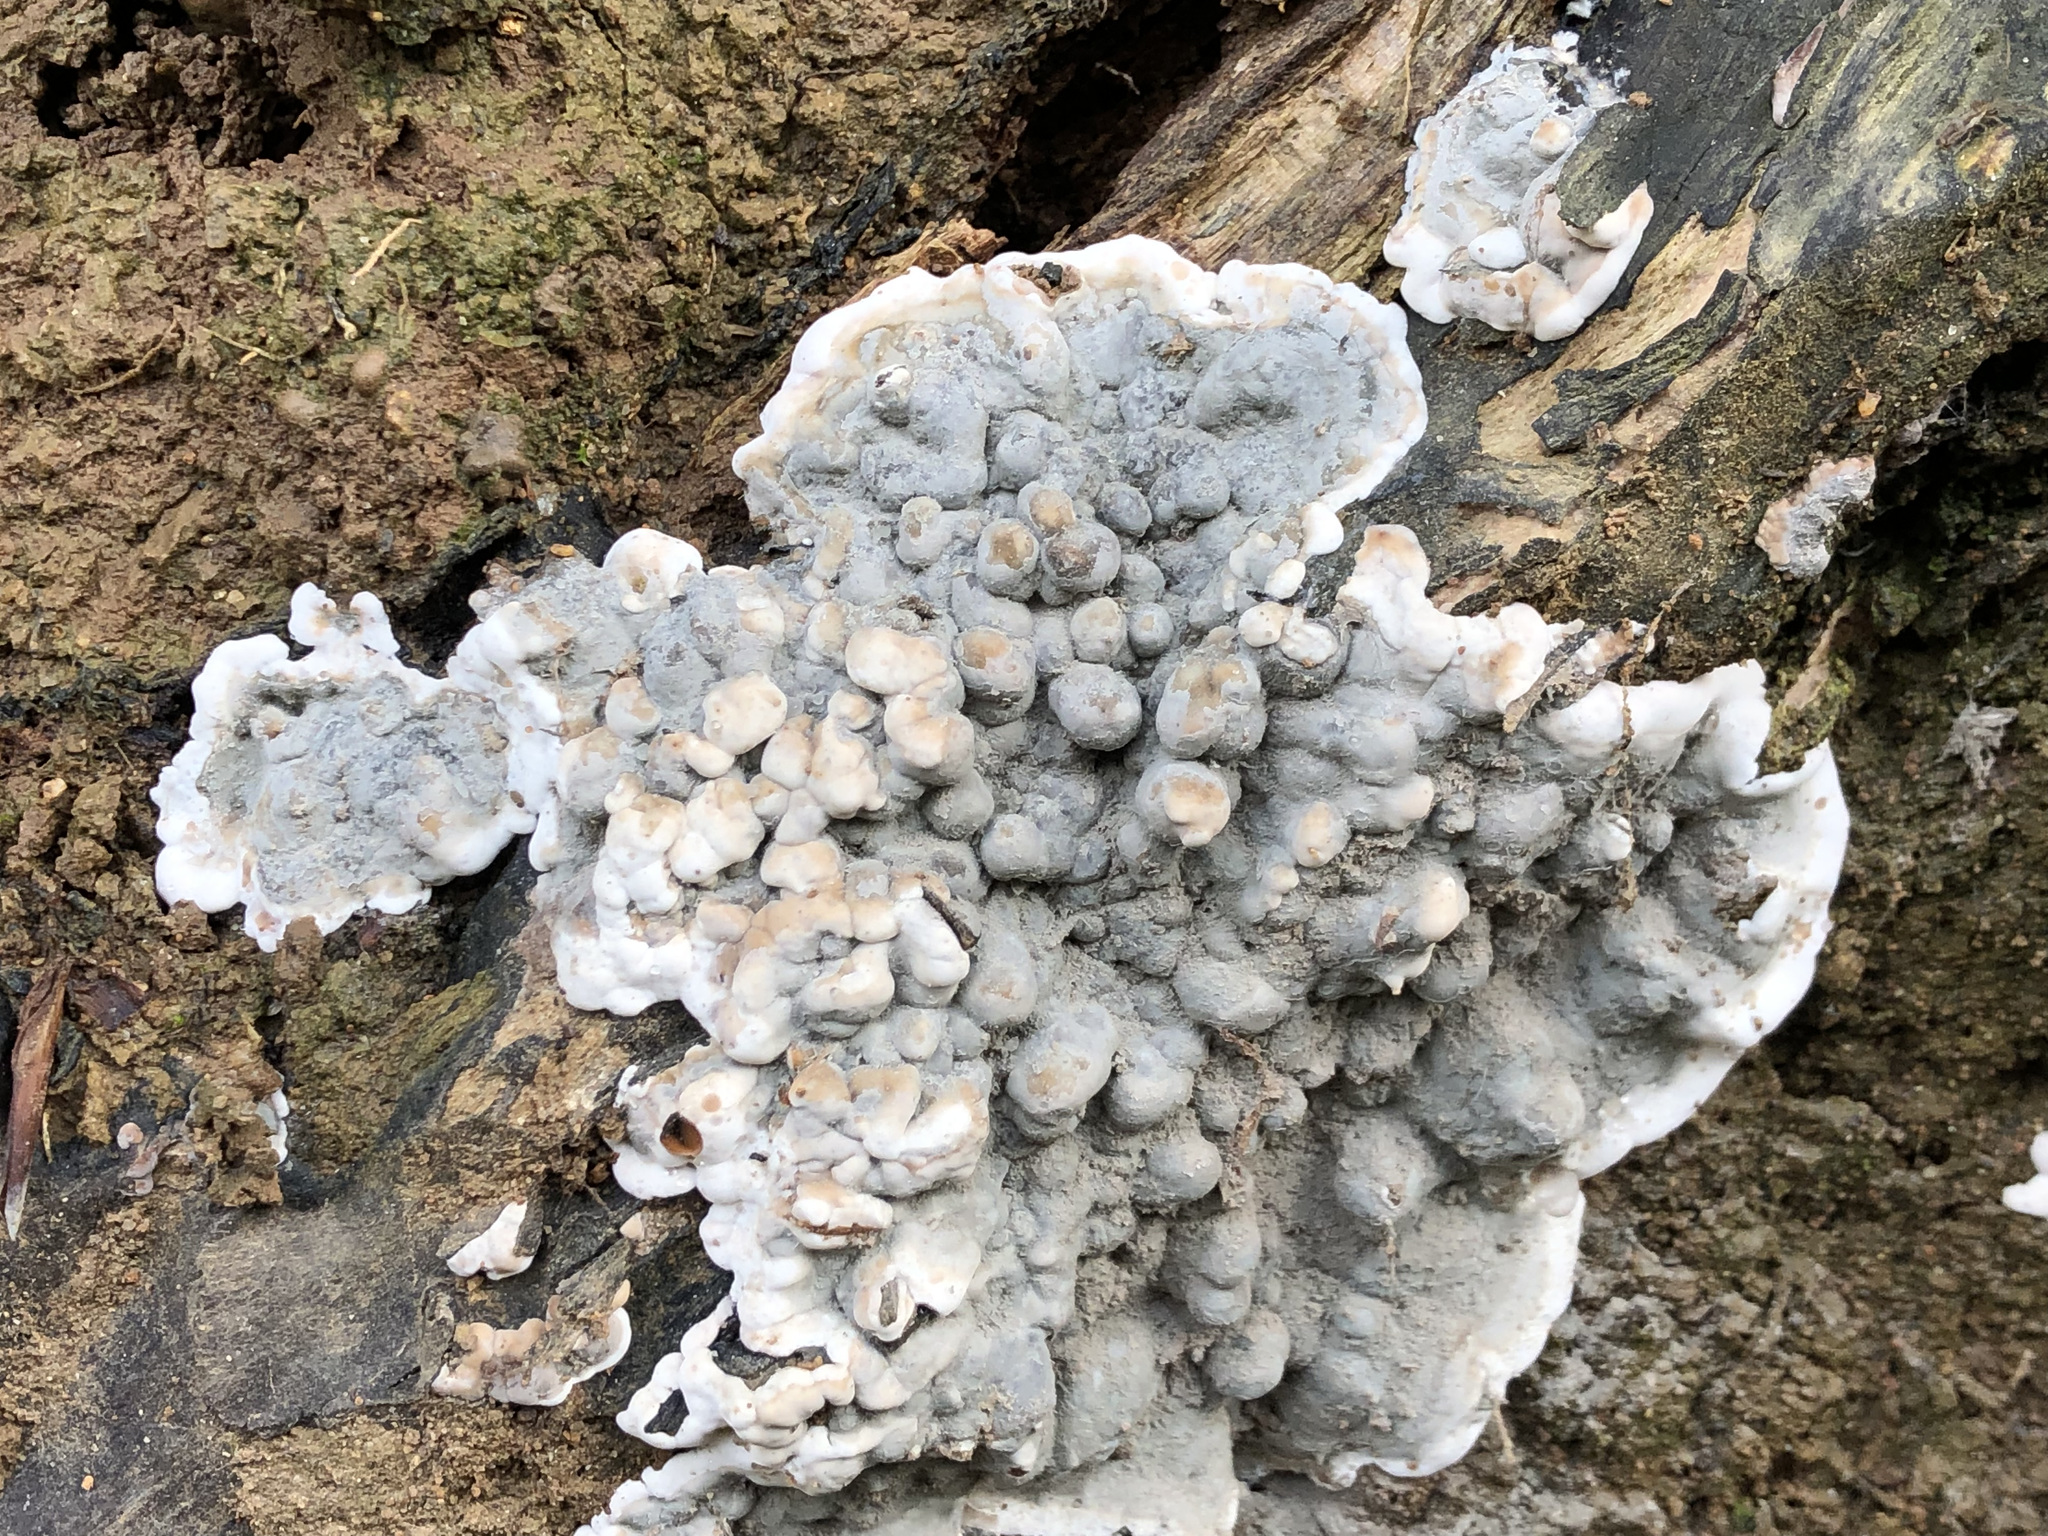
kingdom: Fungi
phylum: Ascomycota
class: Sordariomycetes
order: Xylariales
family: Xylariaceae
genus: Kretzschmaria
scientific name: Kretzschmaria deusta
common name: Brittle cinder
